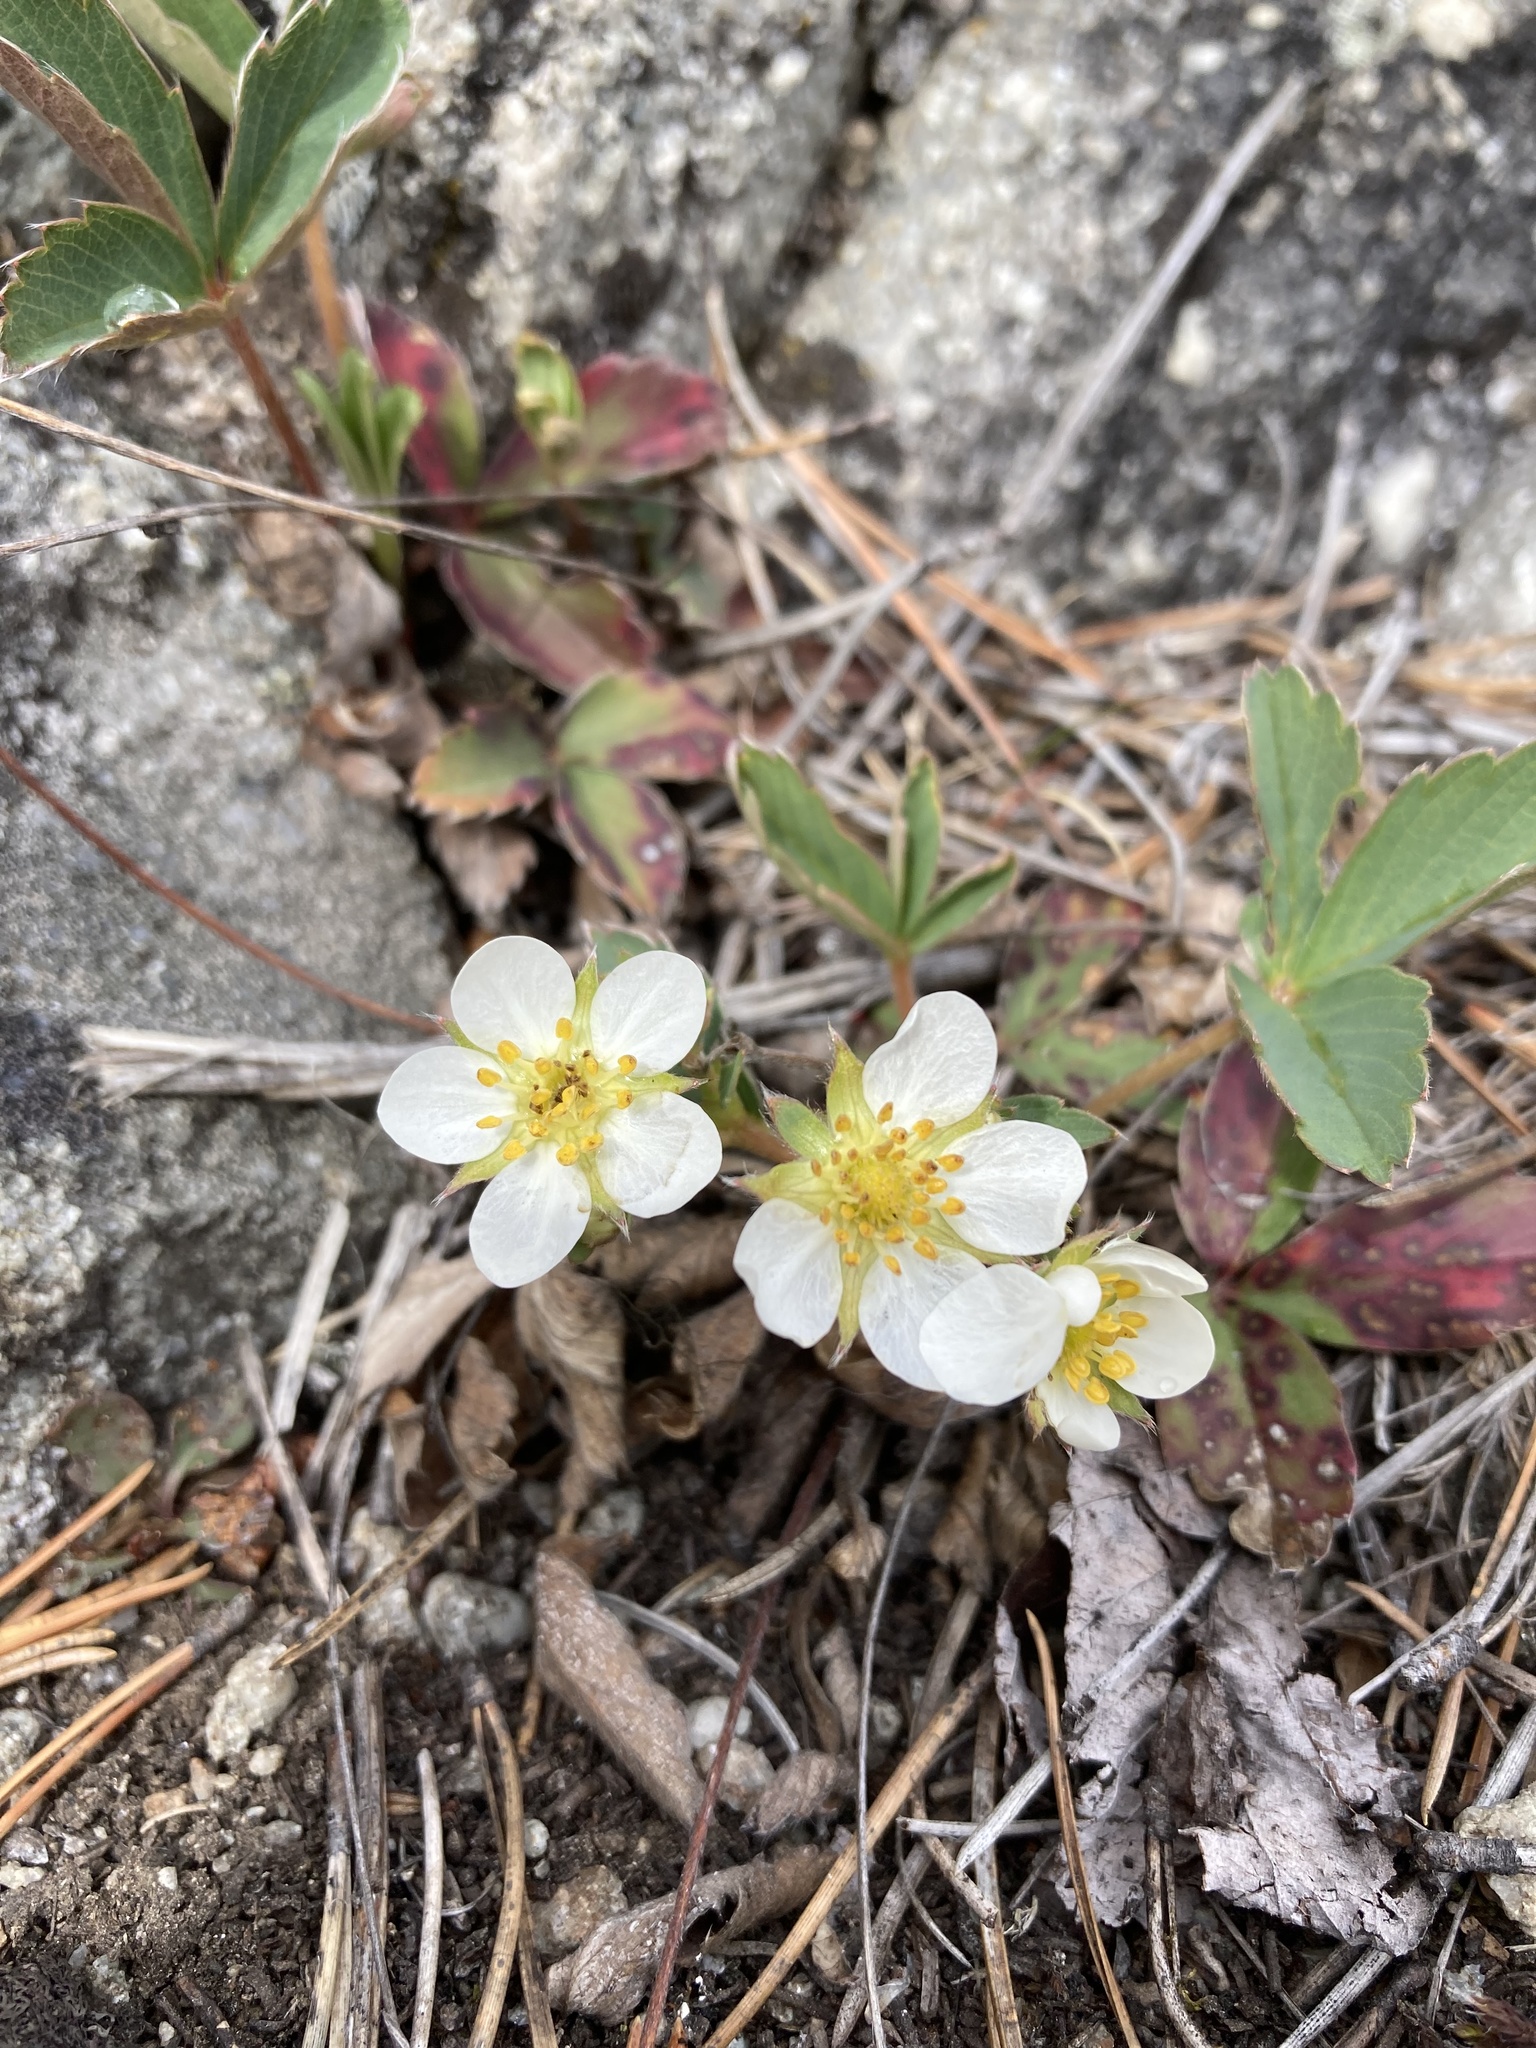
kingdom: Plantae
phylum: Tracheophyta
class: Magnoliopsida
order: Rosales
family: Rosaceae
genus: Fragaria
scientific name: Fragaria virginiana
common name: Thickleaved wild strawberry
